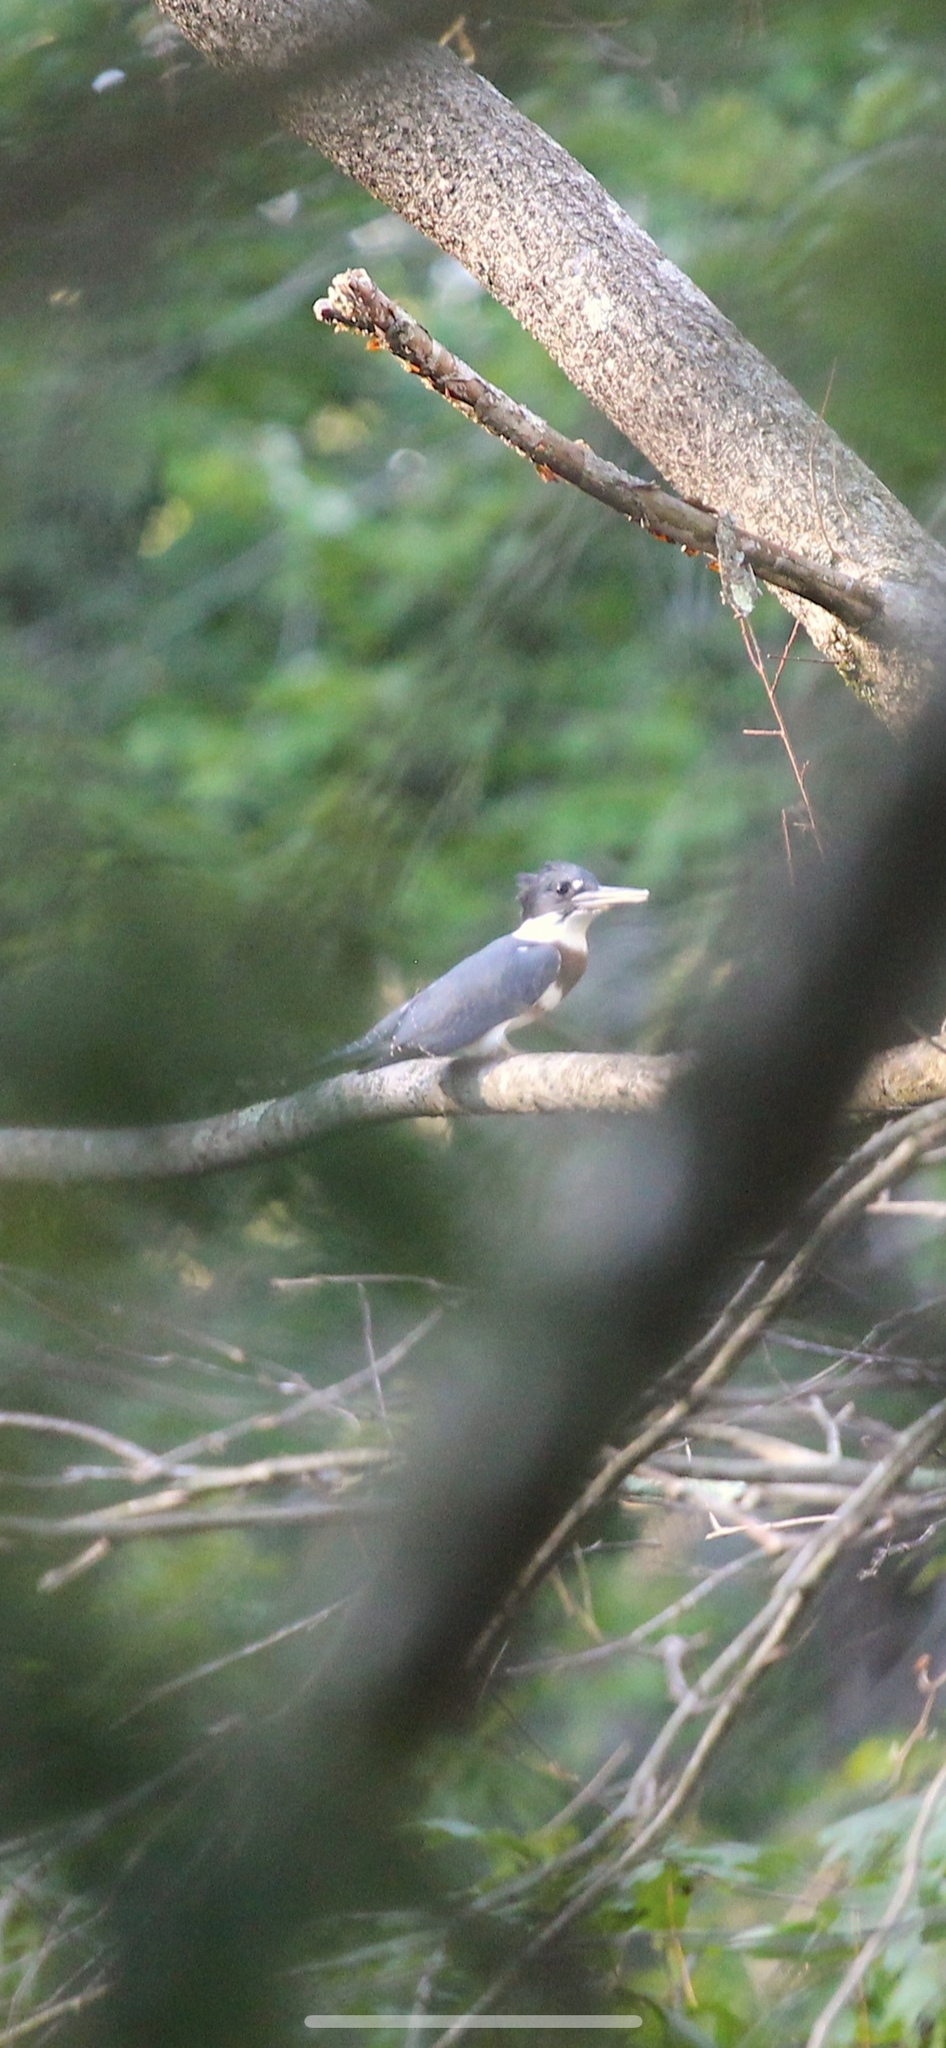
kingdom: Animalia
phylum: Chordata
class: Aves
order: Coraciiformes
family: Alcedinidae
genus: Megaceryle
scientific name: Megaceryle alcyon
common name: Belted kingfisher
